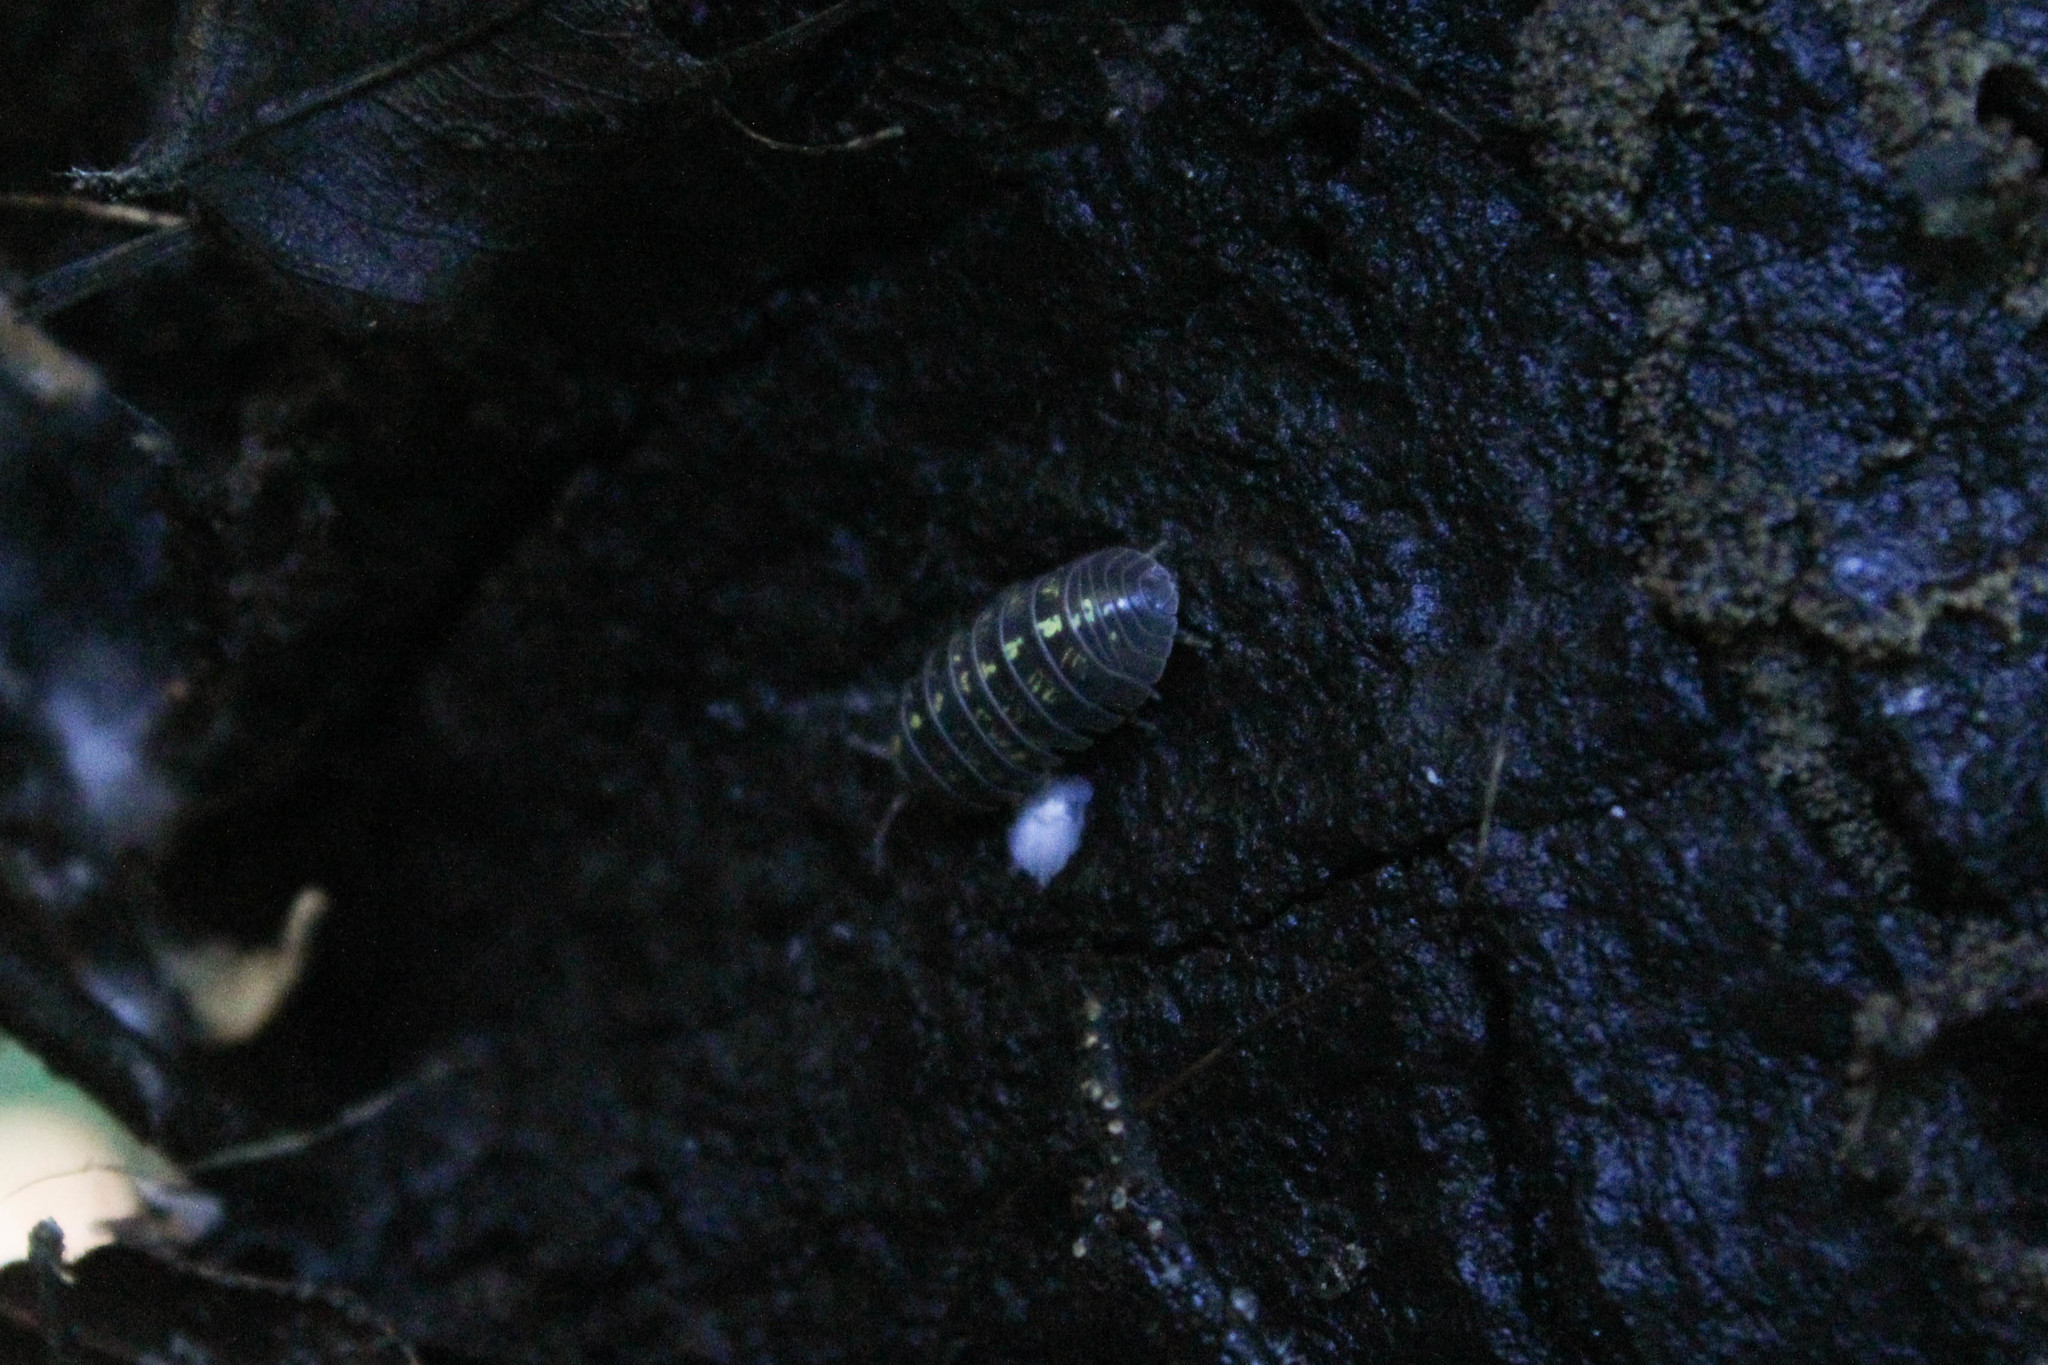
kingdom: Animalia
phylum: Arthropoda
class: Malacostraca
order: Isopoda
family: Armadillidiidae
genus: Armadillidium
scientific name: Armadillidium vulgare
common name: Common pill woodlouse
